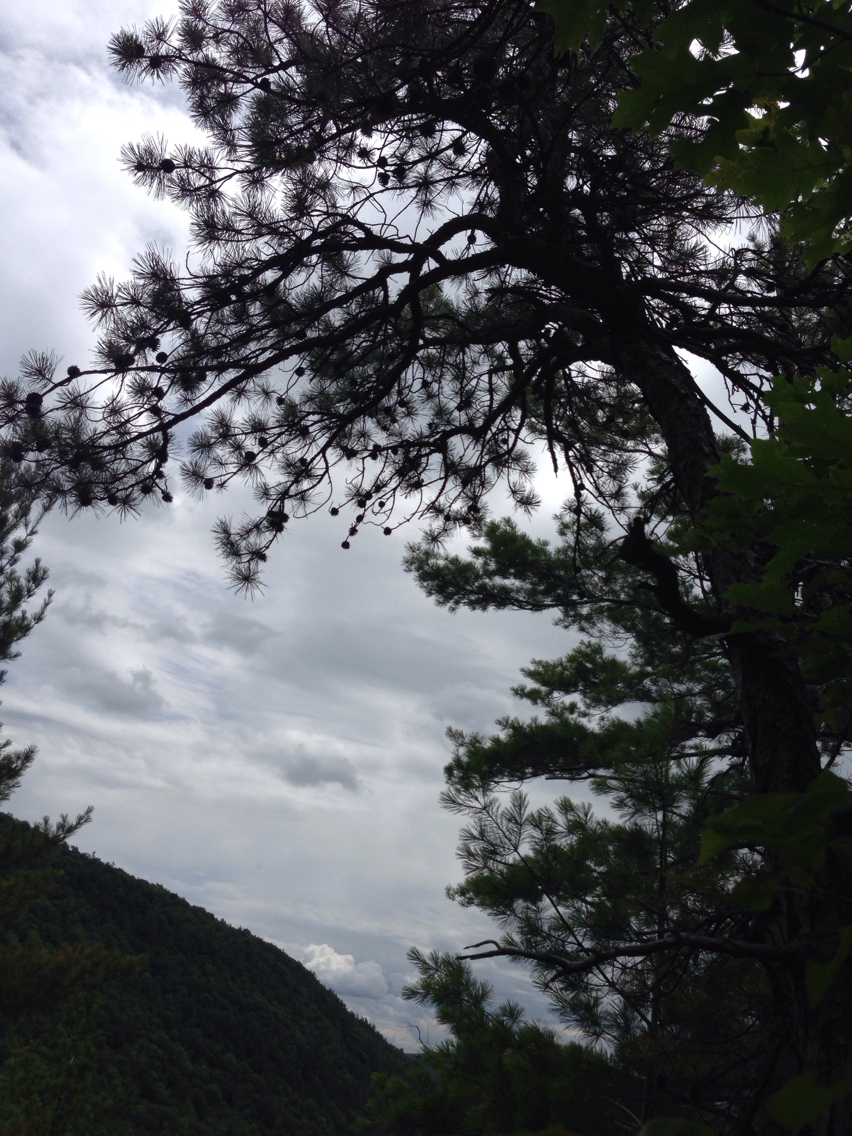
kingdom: Plantae
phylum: Tracheophyta
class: Pinopsida
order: Pinales
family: Pinaceae
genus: Pinus
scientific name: Pinus rigida
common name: Pitch pine
